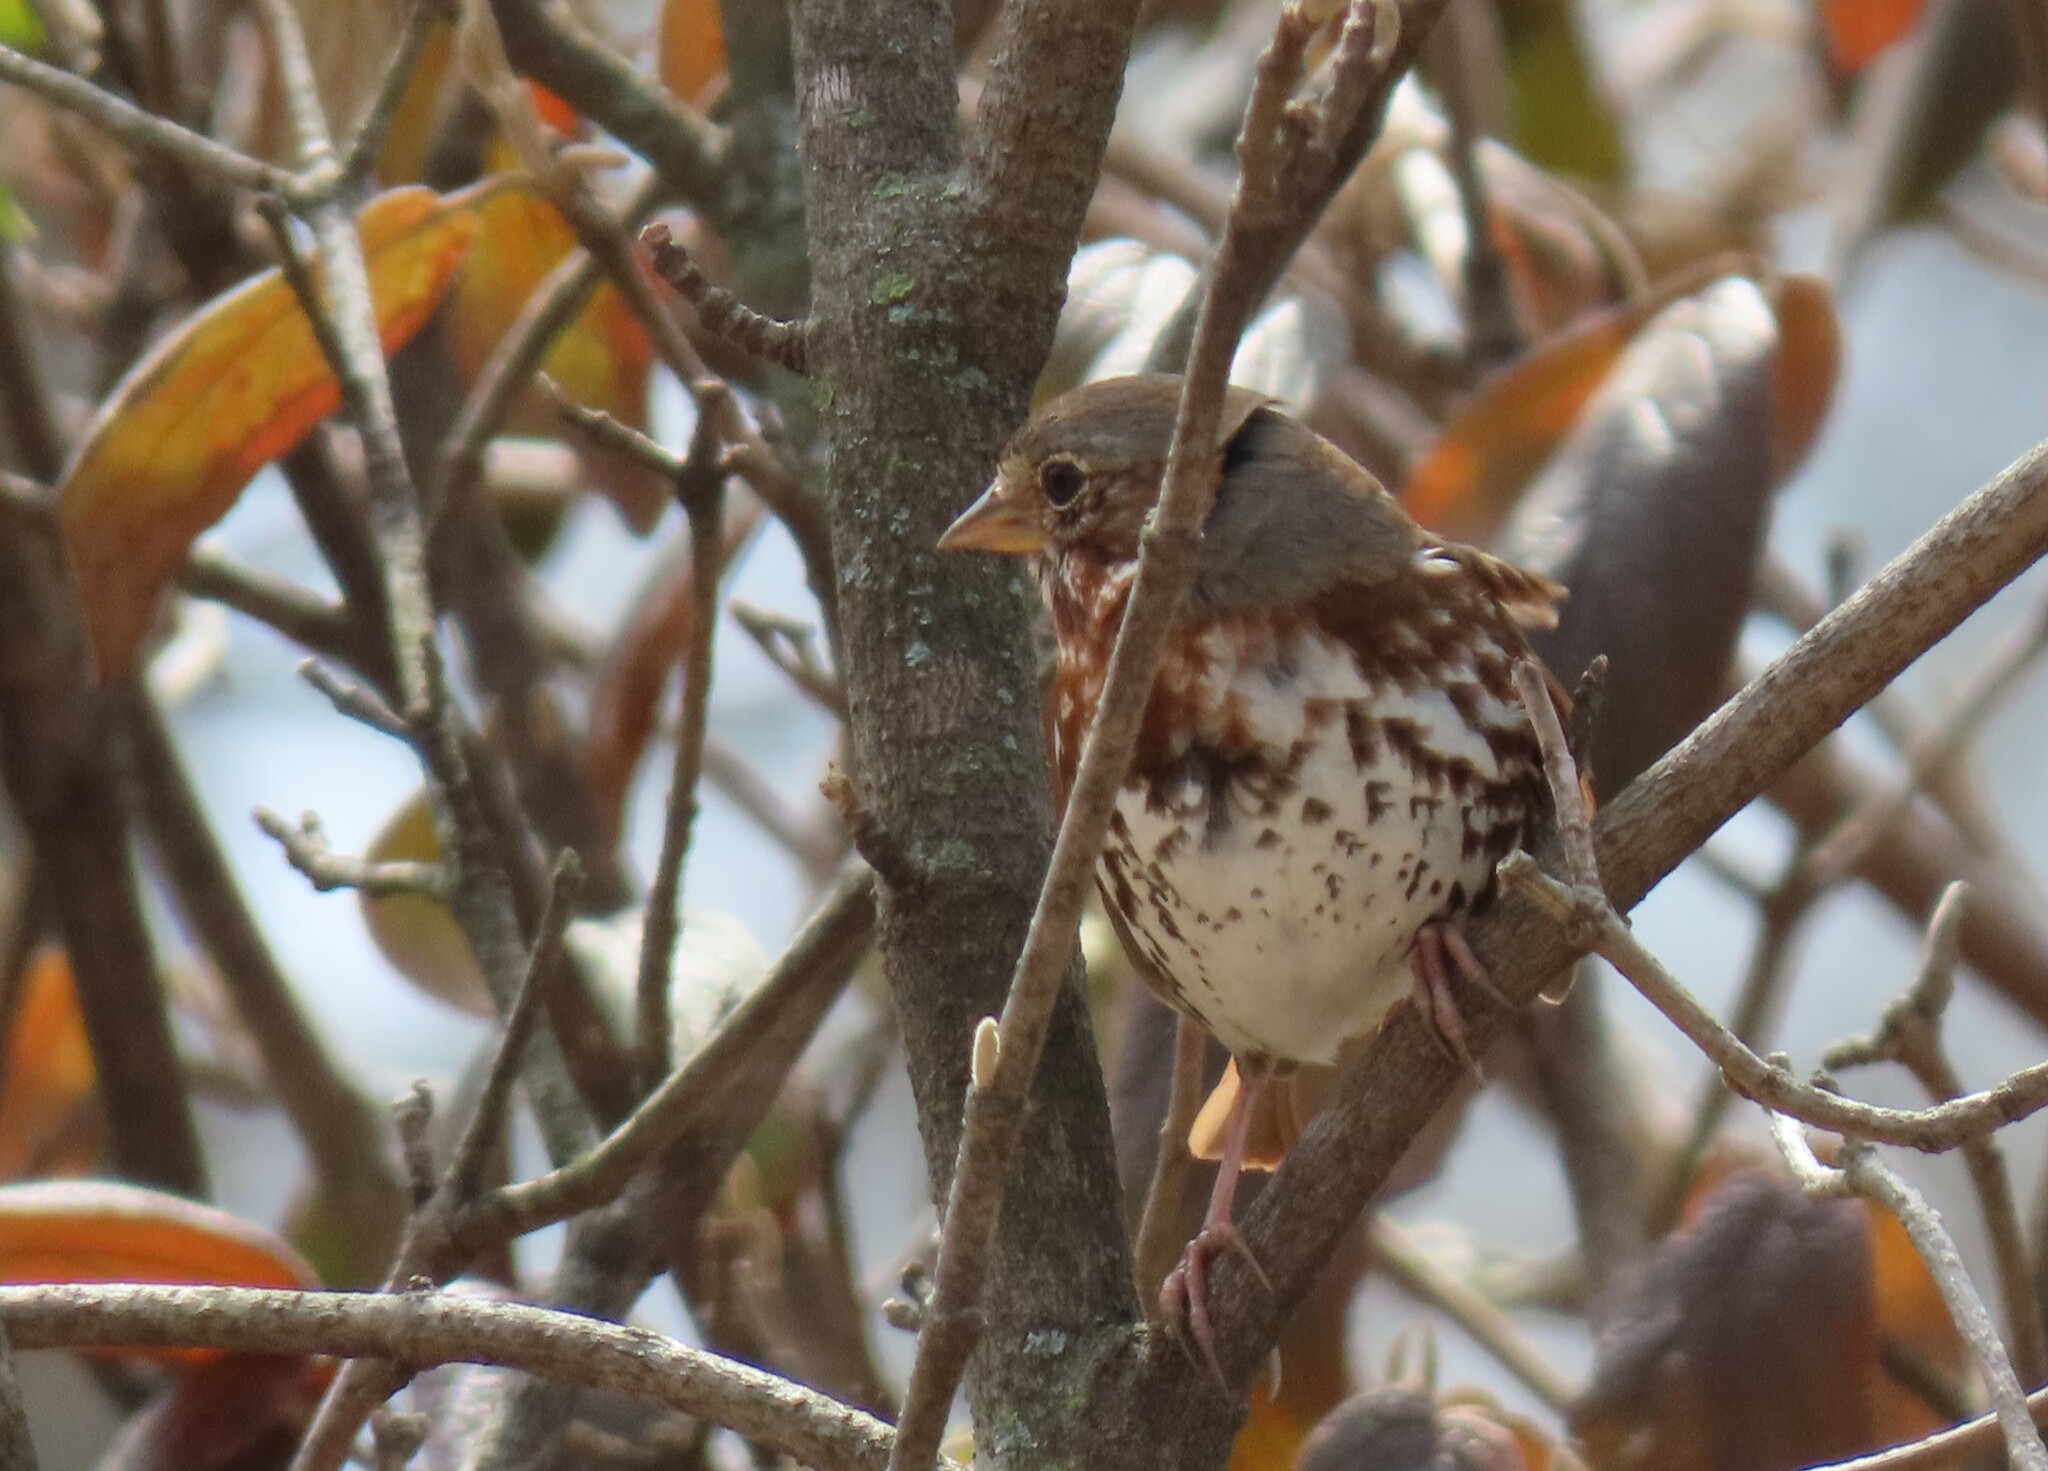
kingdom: Animalia
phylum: Chordata
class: Aves
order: Passeriformes
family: Passerellidae
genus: Passerella
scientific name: Passerella iliaca
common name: Fox sparrow
